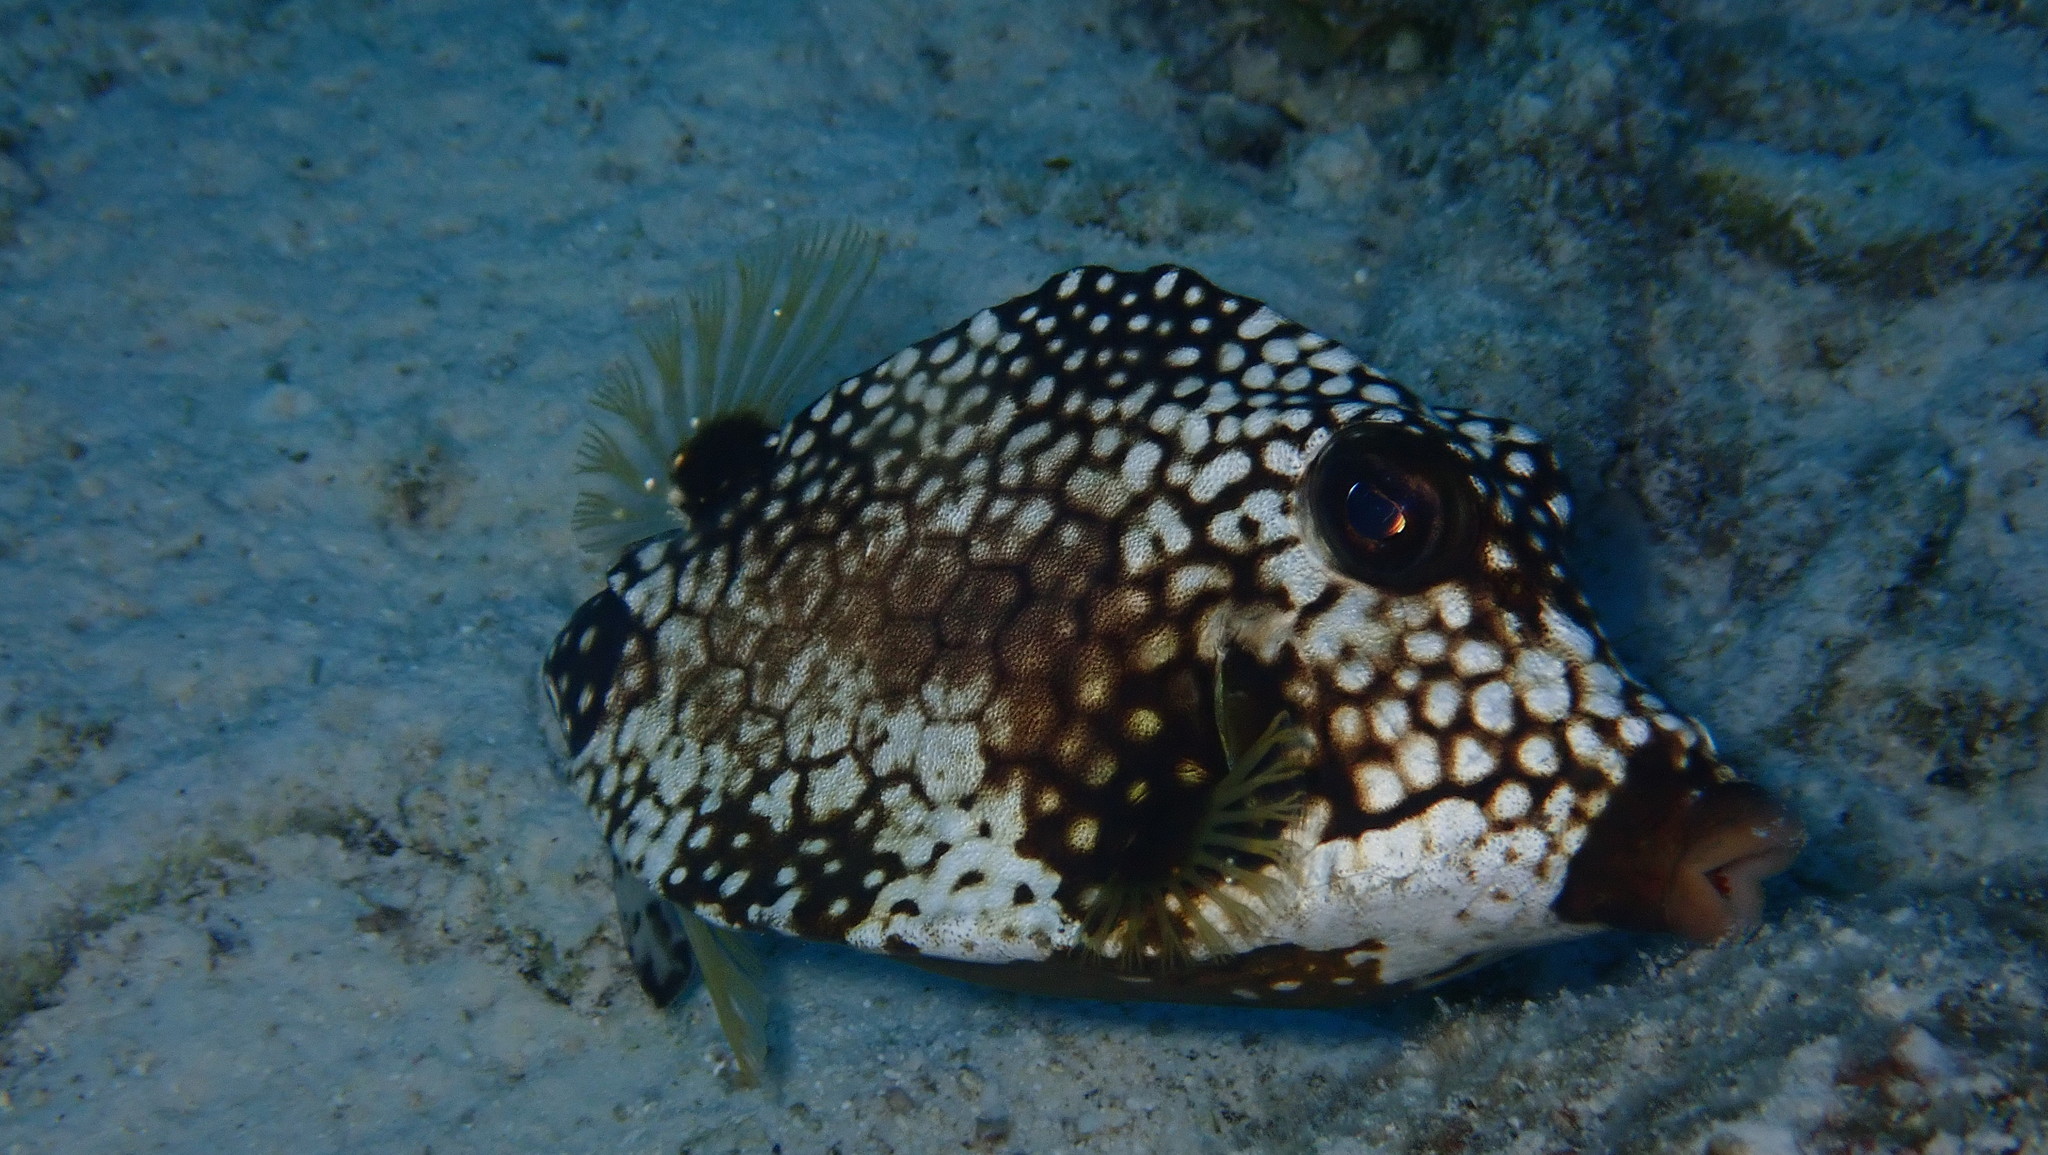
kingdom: Animalia
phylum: Chordata
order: Tetraodontiformes
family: Ostraciidae
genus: Lactophrys
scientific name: Lactophrys triqueter
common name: Smooth trunkfish
